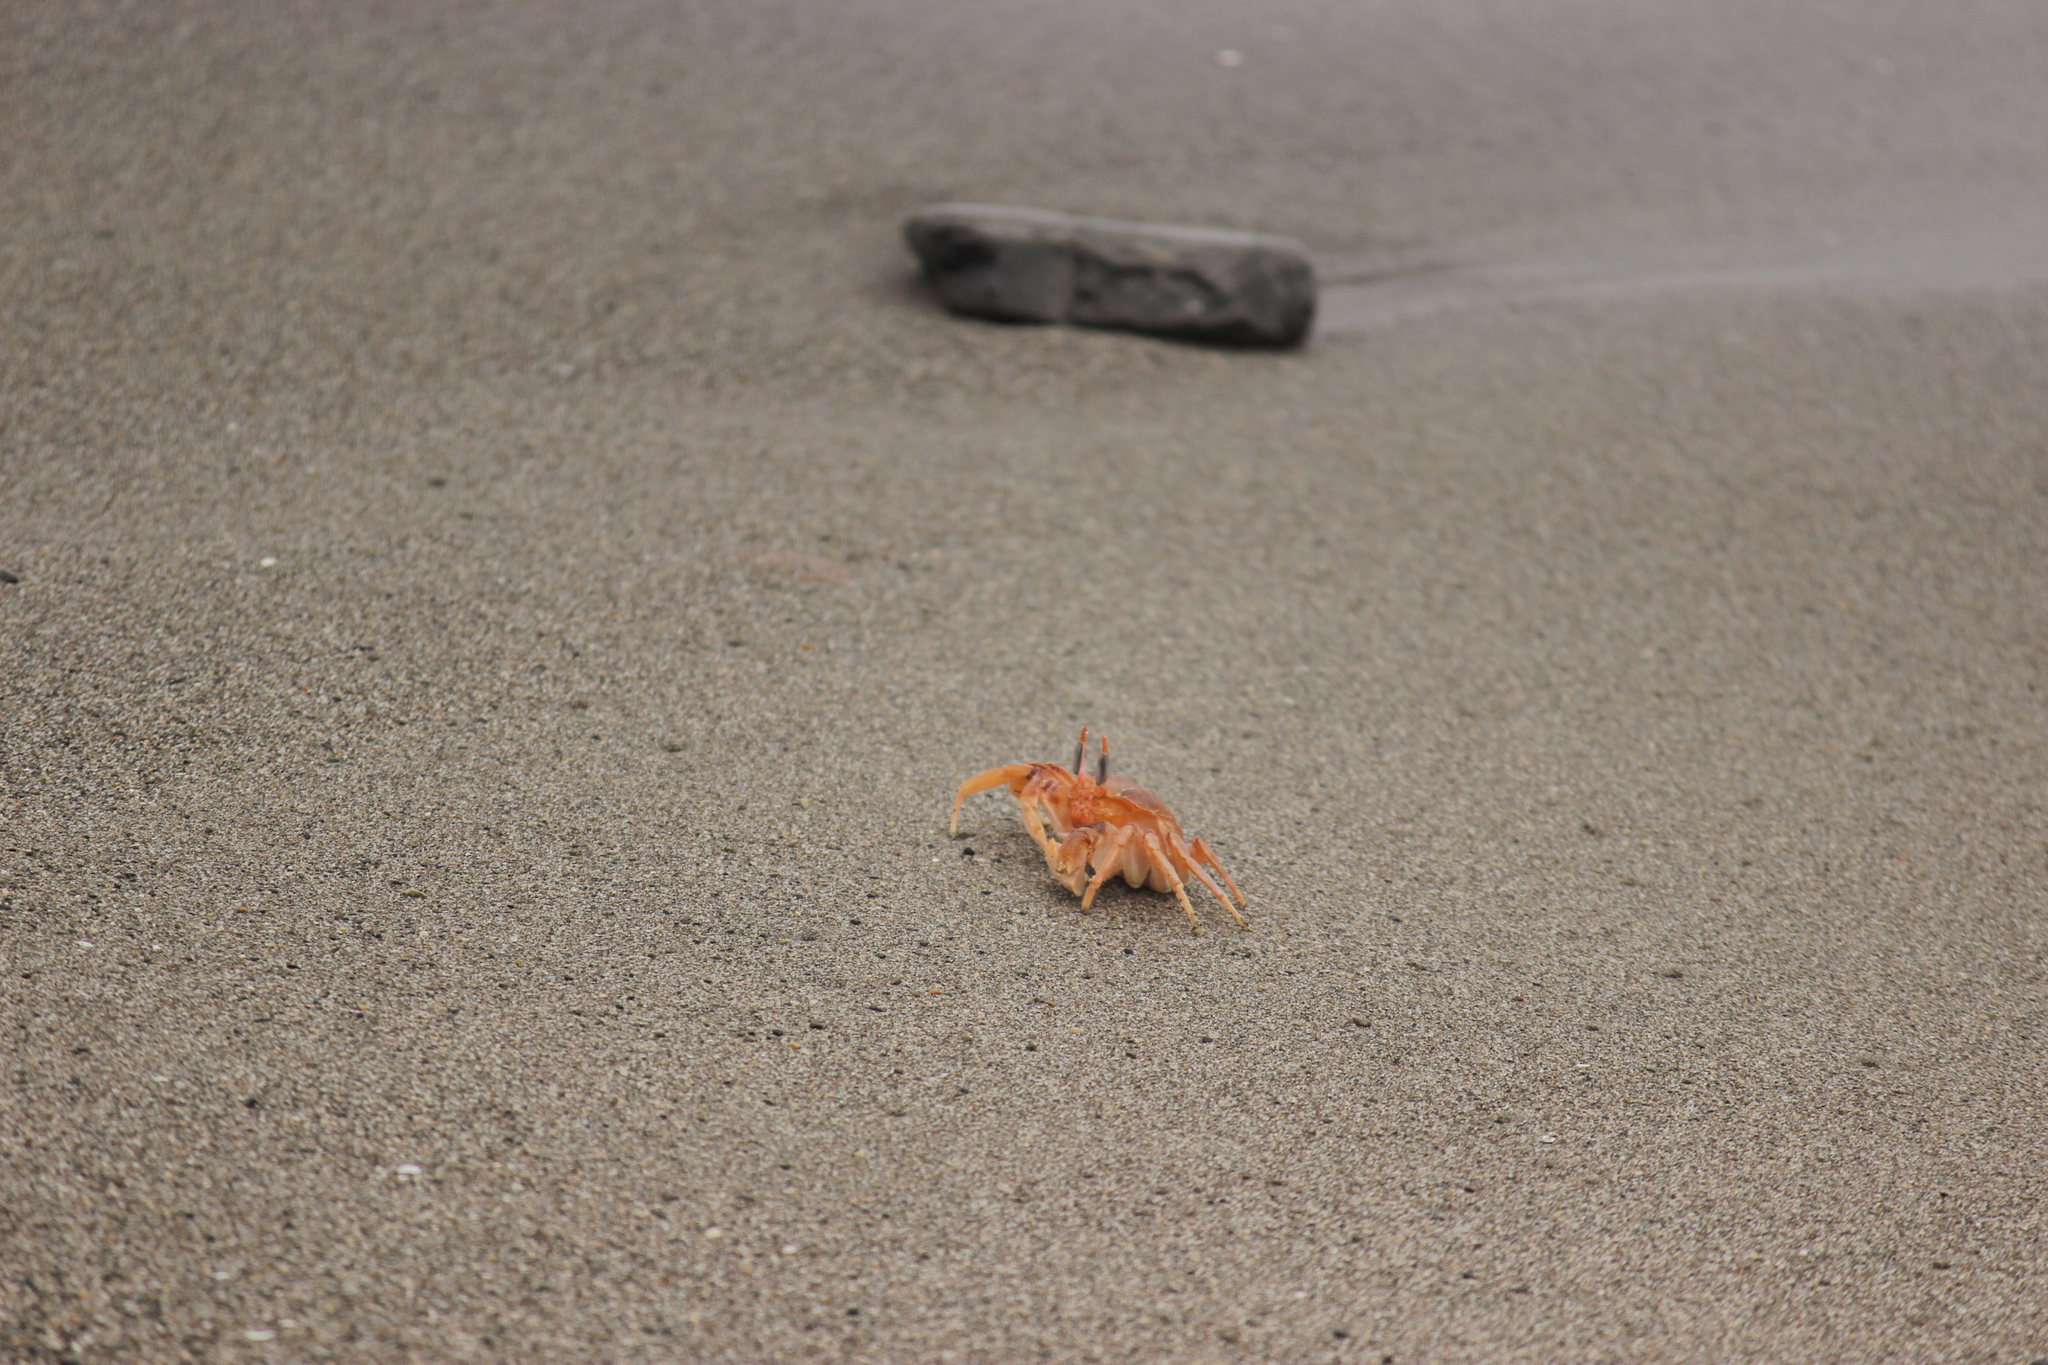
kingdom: Animalia
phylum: Arthropoda
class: Malacostraca
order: Decapoda
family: Ocypodidae
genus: Ocypode
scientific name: Ocypode gaudichaudii
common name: Pacific ghost crab
